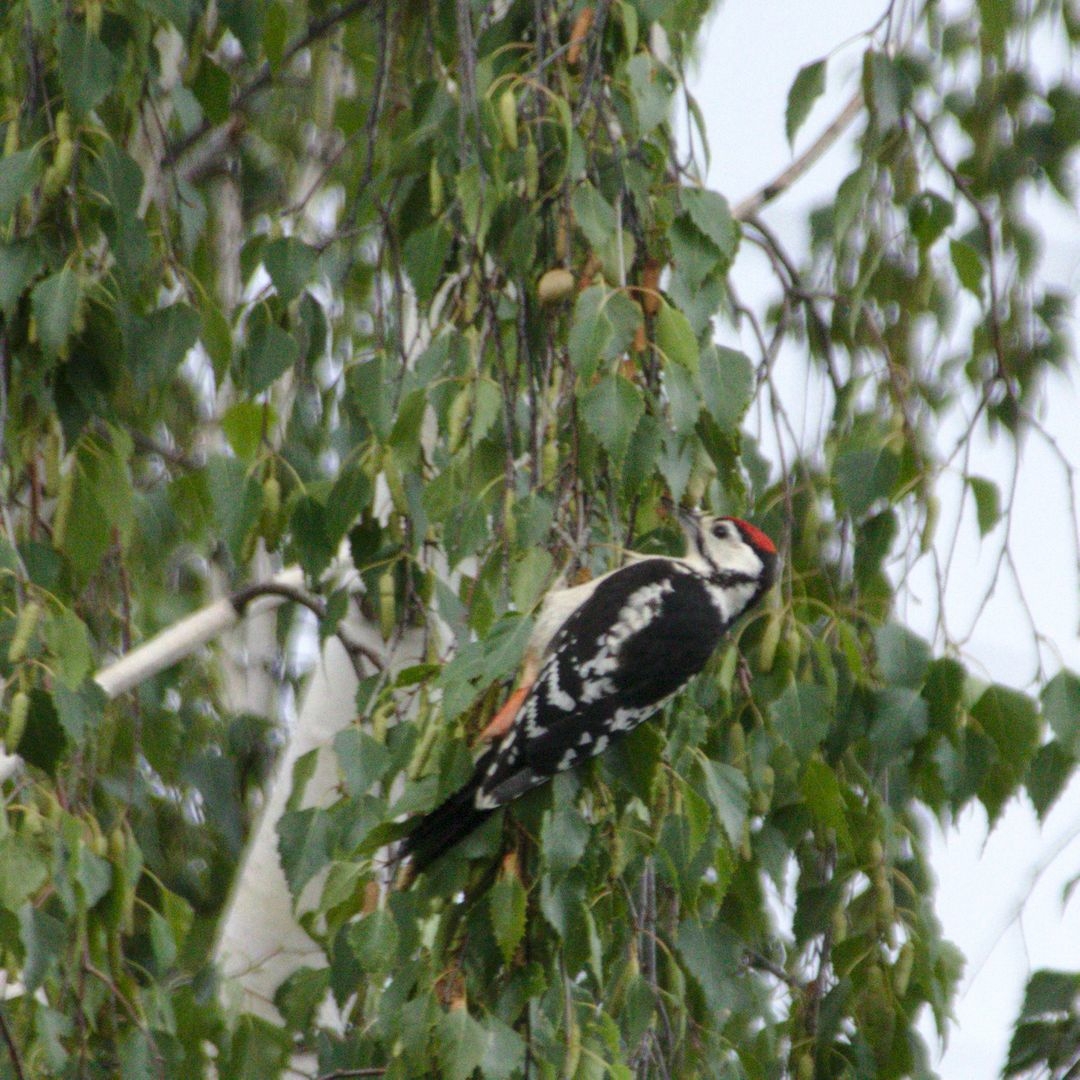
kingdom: Animalia
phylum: Chordata
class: Aves
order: Piciformes
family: Picidae
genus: Dendrocopos
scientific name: Dendrocopos major
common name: Great spotted woodpecker
